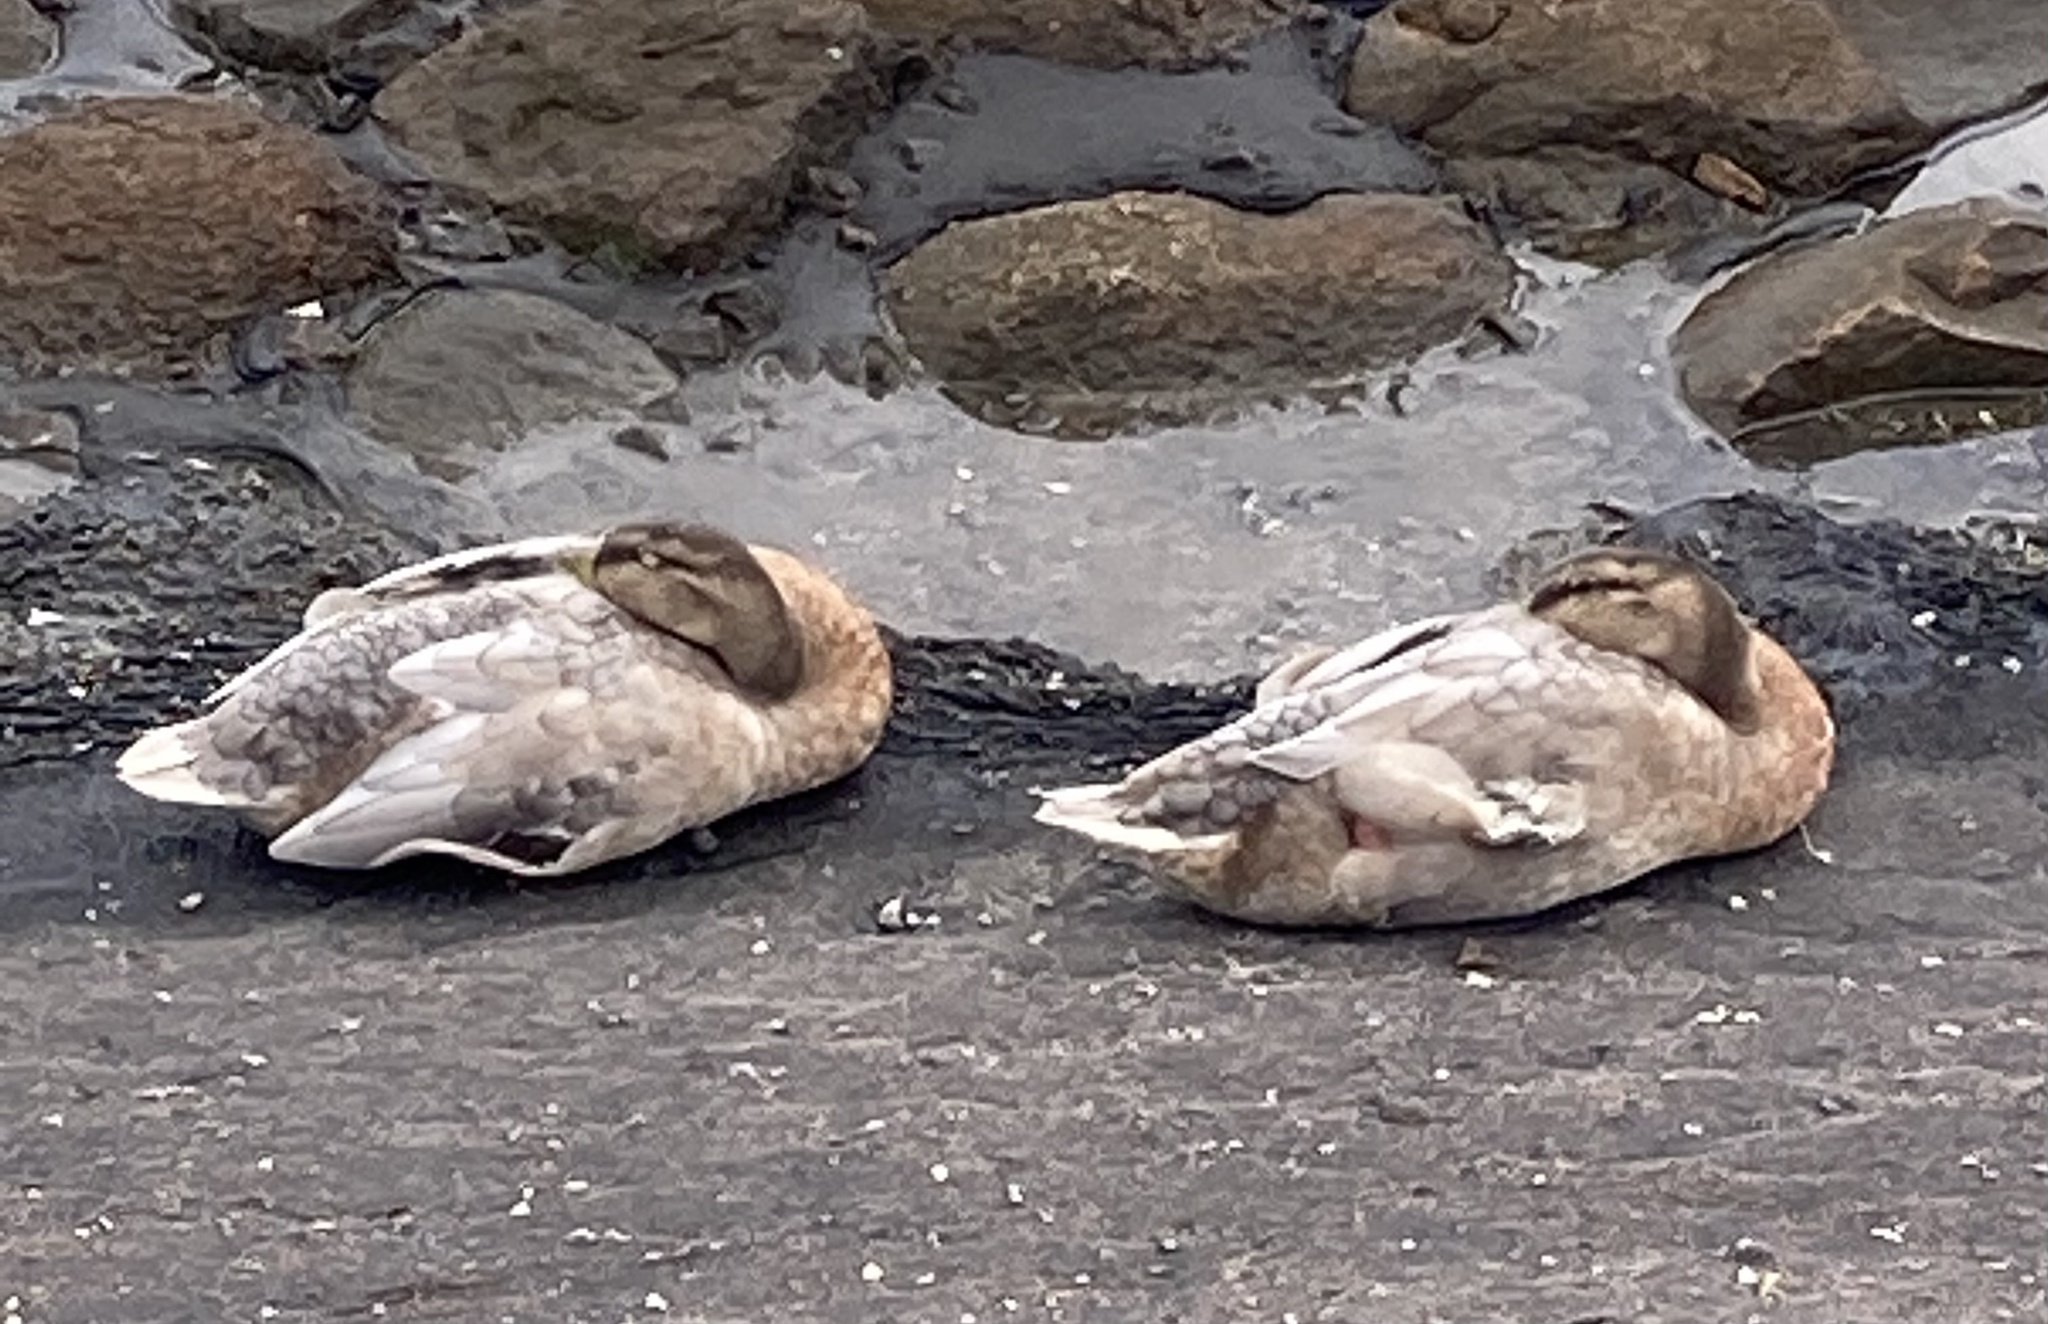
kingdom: Animalia
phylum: Chordata
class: Aves
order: Anseriformes
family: Anatidae
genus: Anas
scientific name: Anas platyrhynchos
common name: Mallard
